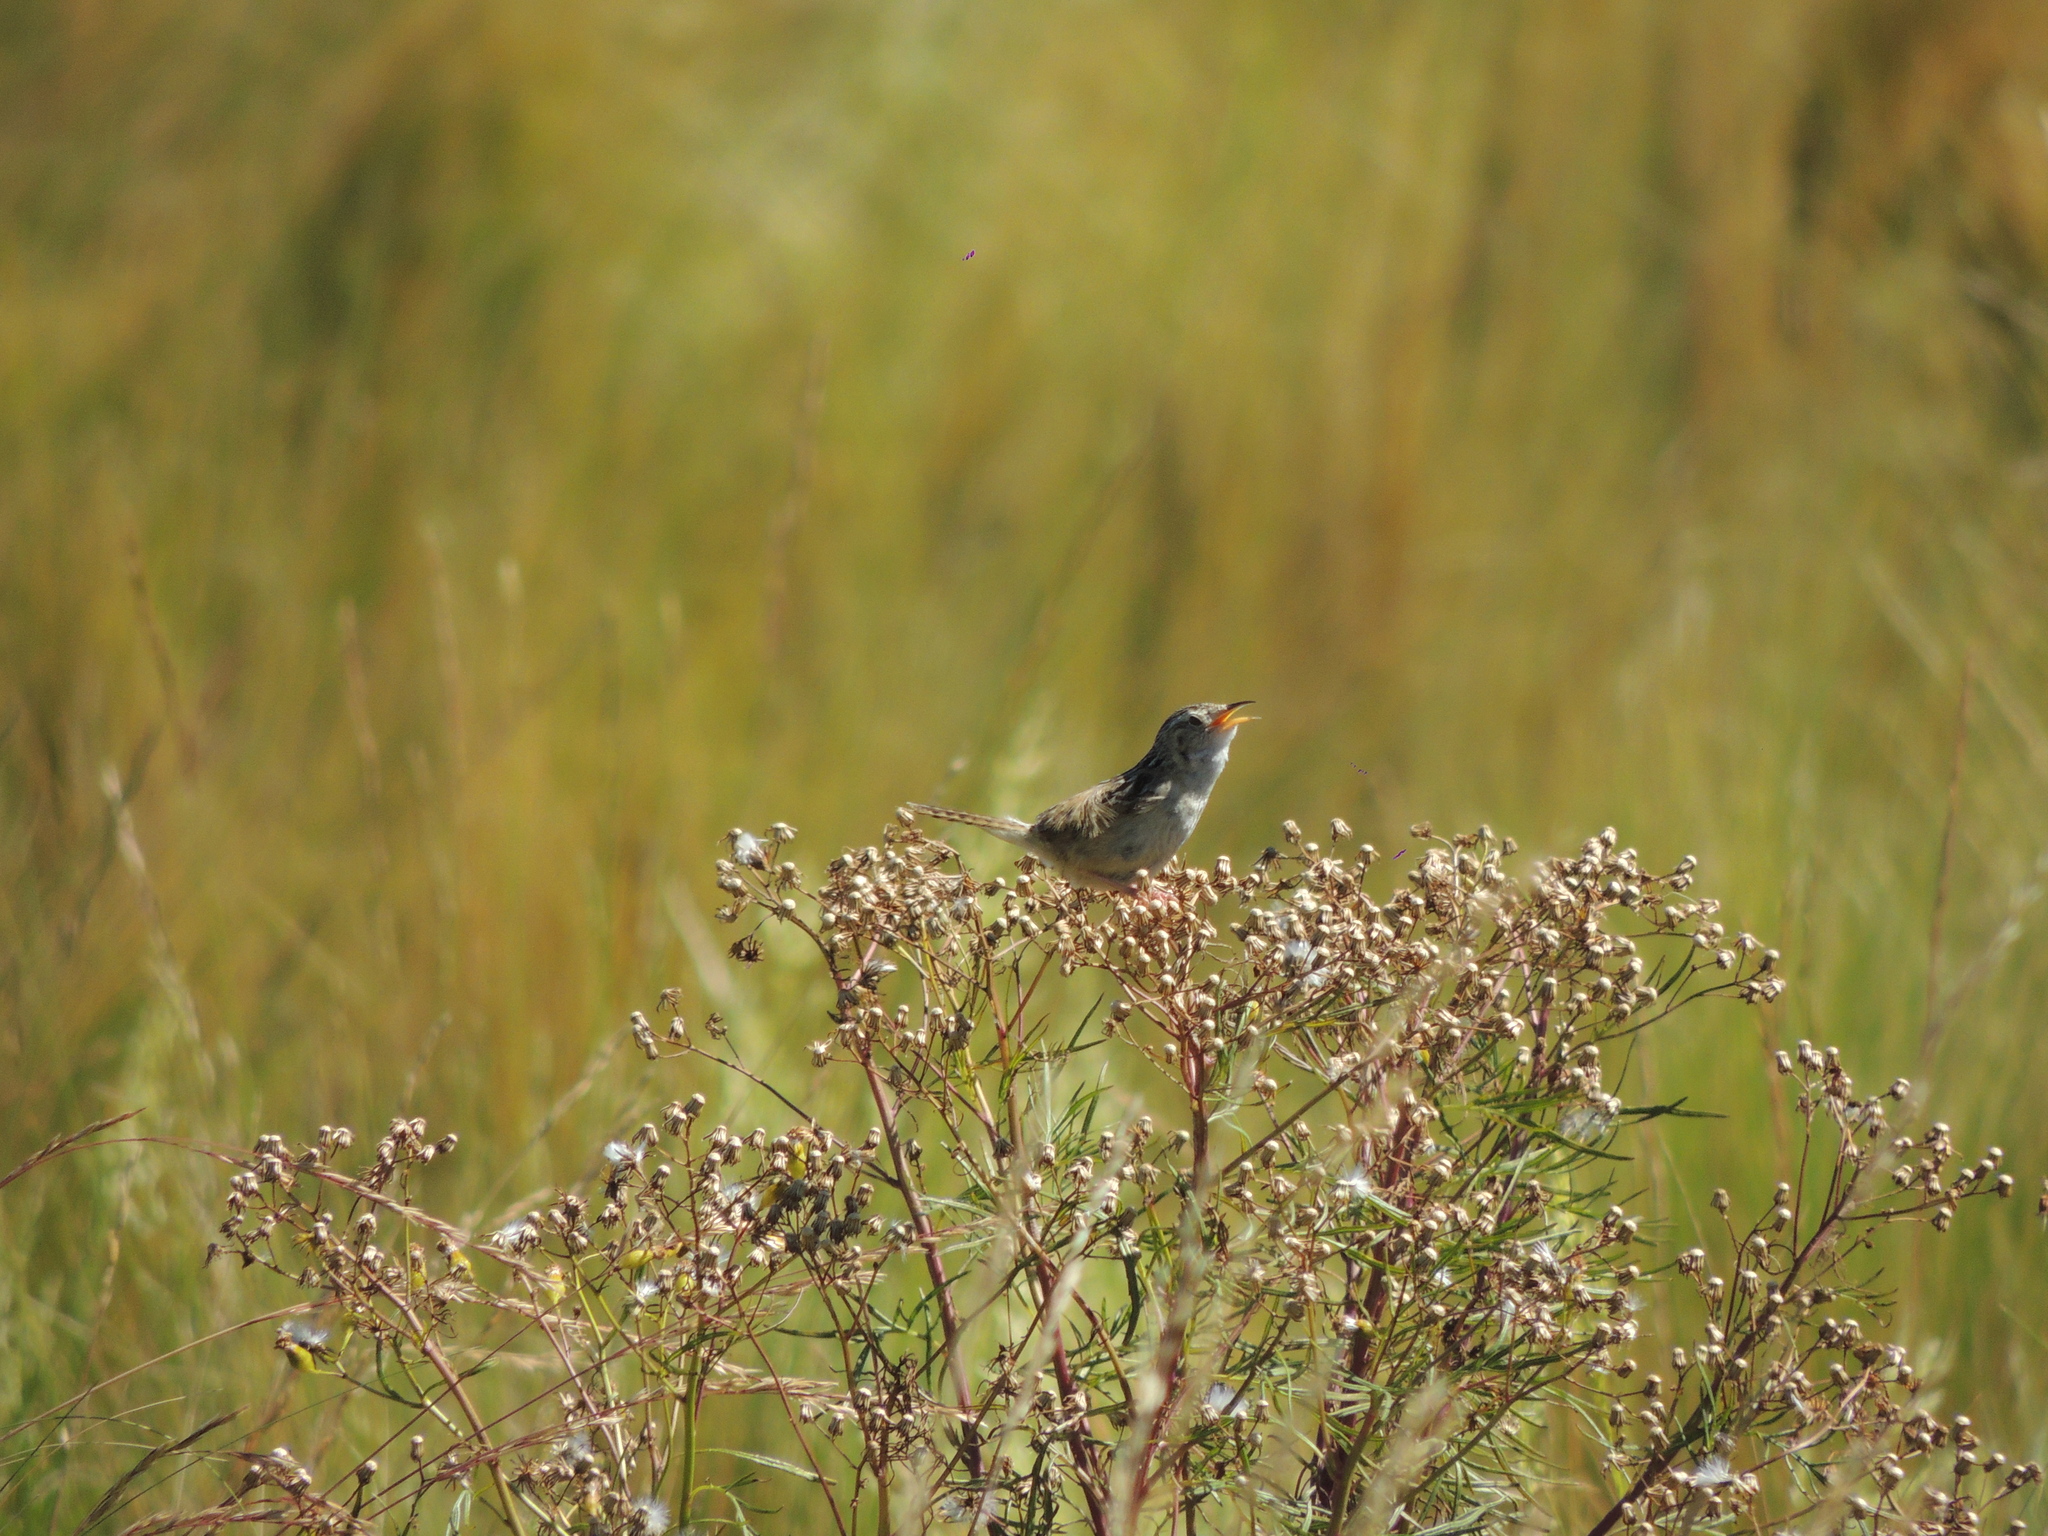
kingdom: Animalia
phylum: Chordata
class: Aves
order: Passeriformes
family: Troglodytidae
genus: Cistothorus
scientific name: Cistothorus platensis
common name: Sedge wren
